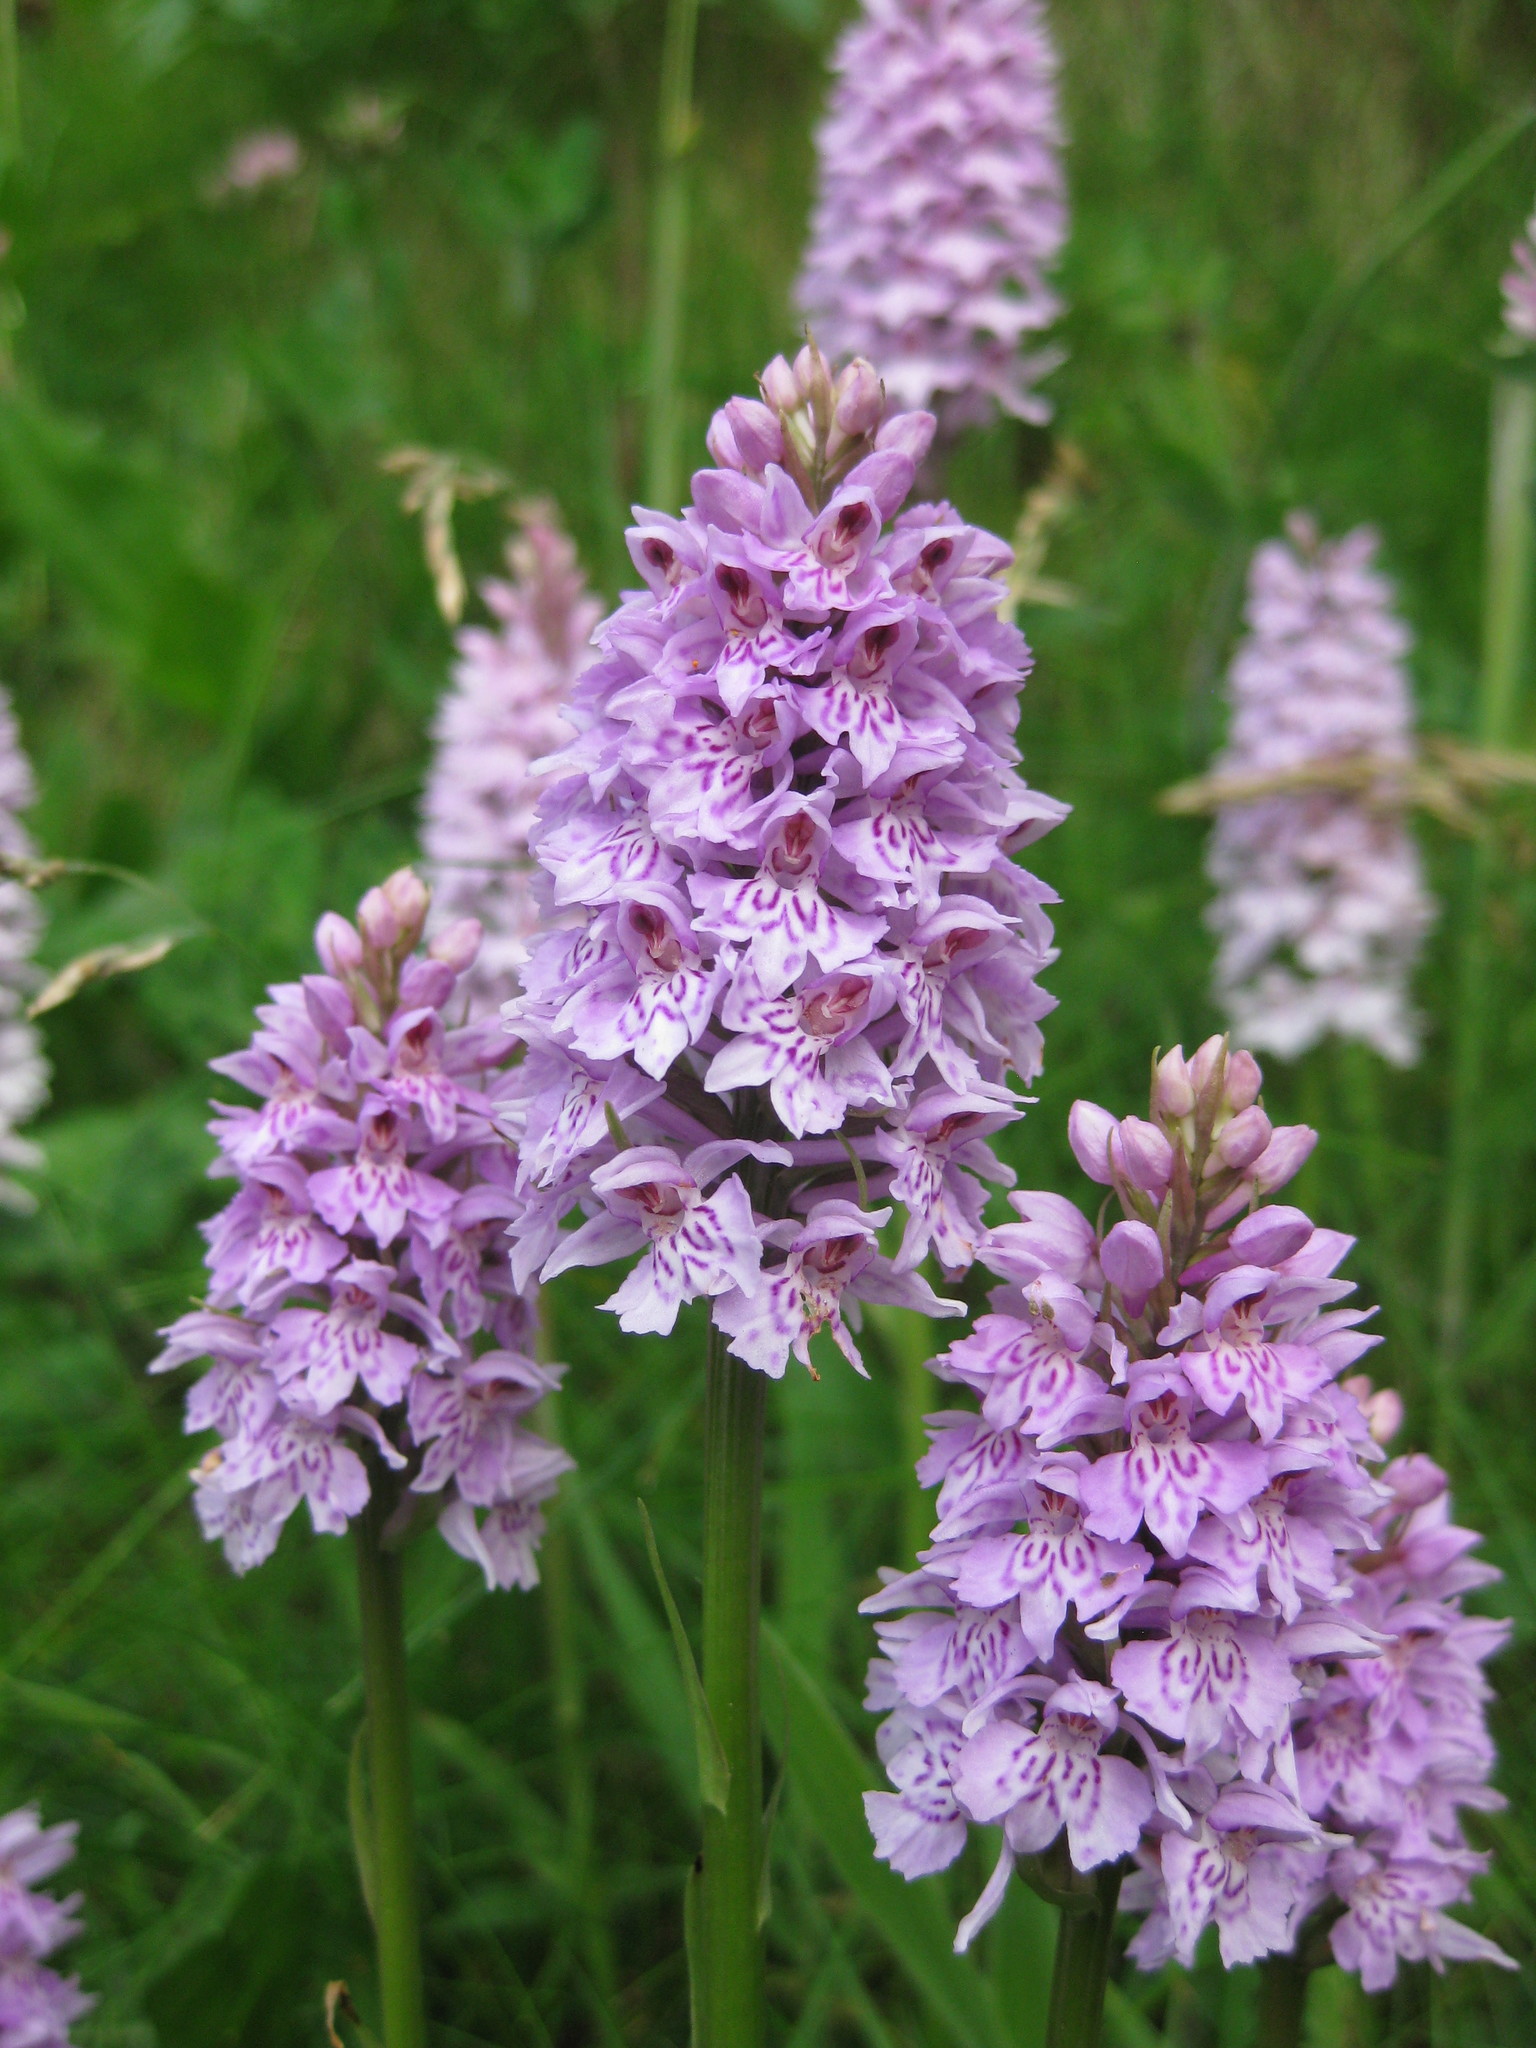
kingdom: Plantae
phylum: Tracheophyta
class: Liliopsida
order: Asparagales
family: Orchidaceae
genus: Dactylorhiza
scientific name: Dactylorhiza maculata
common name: Heath spotted-orchid
